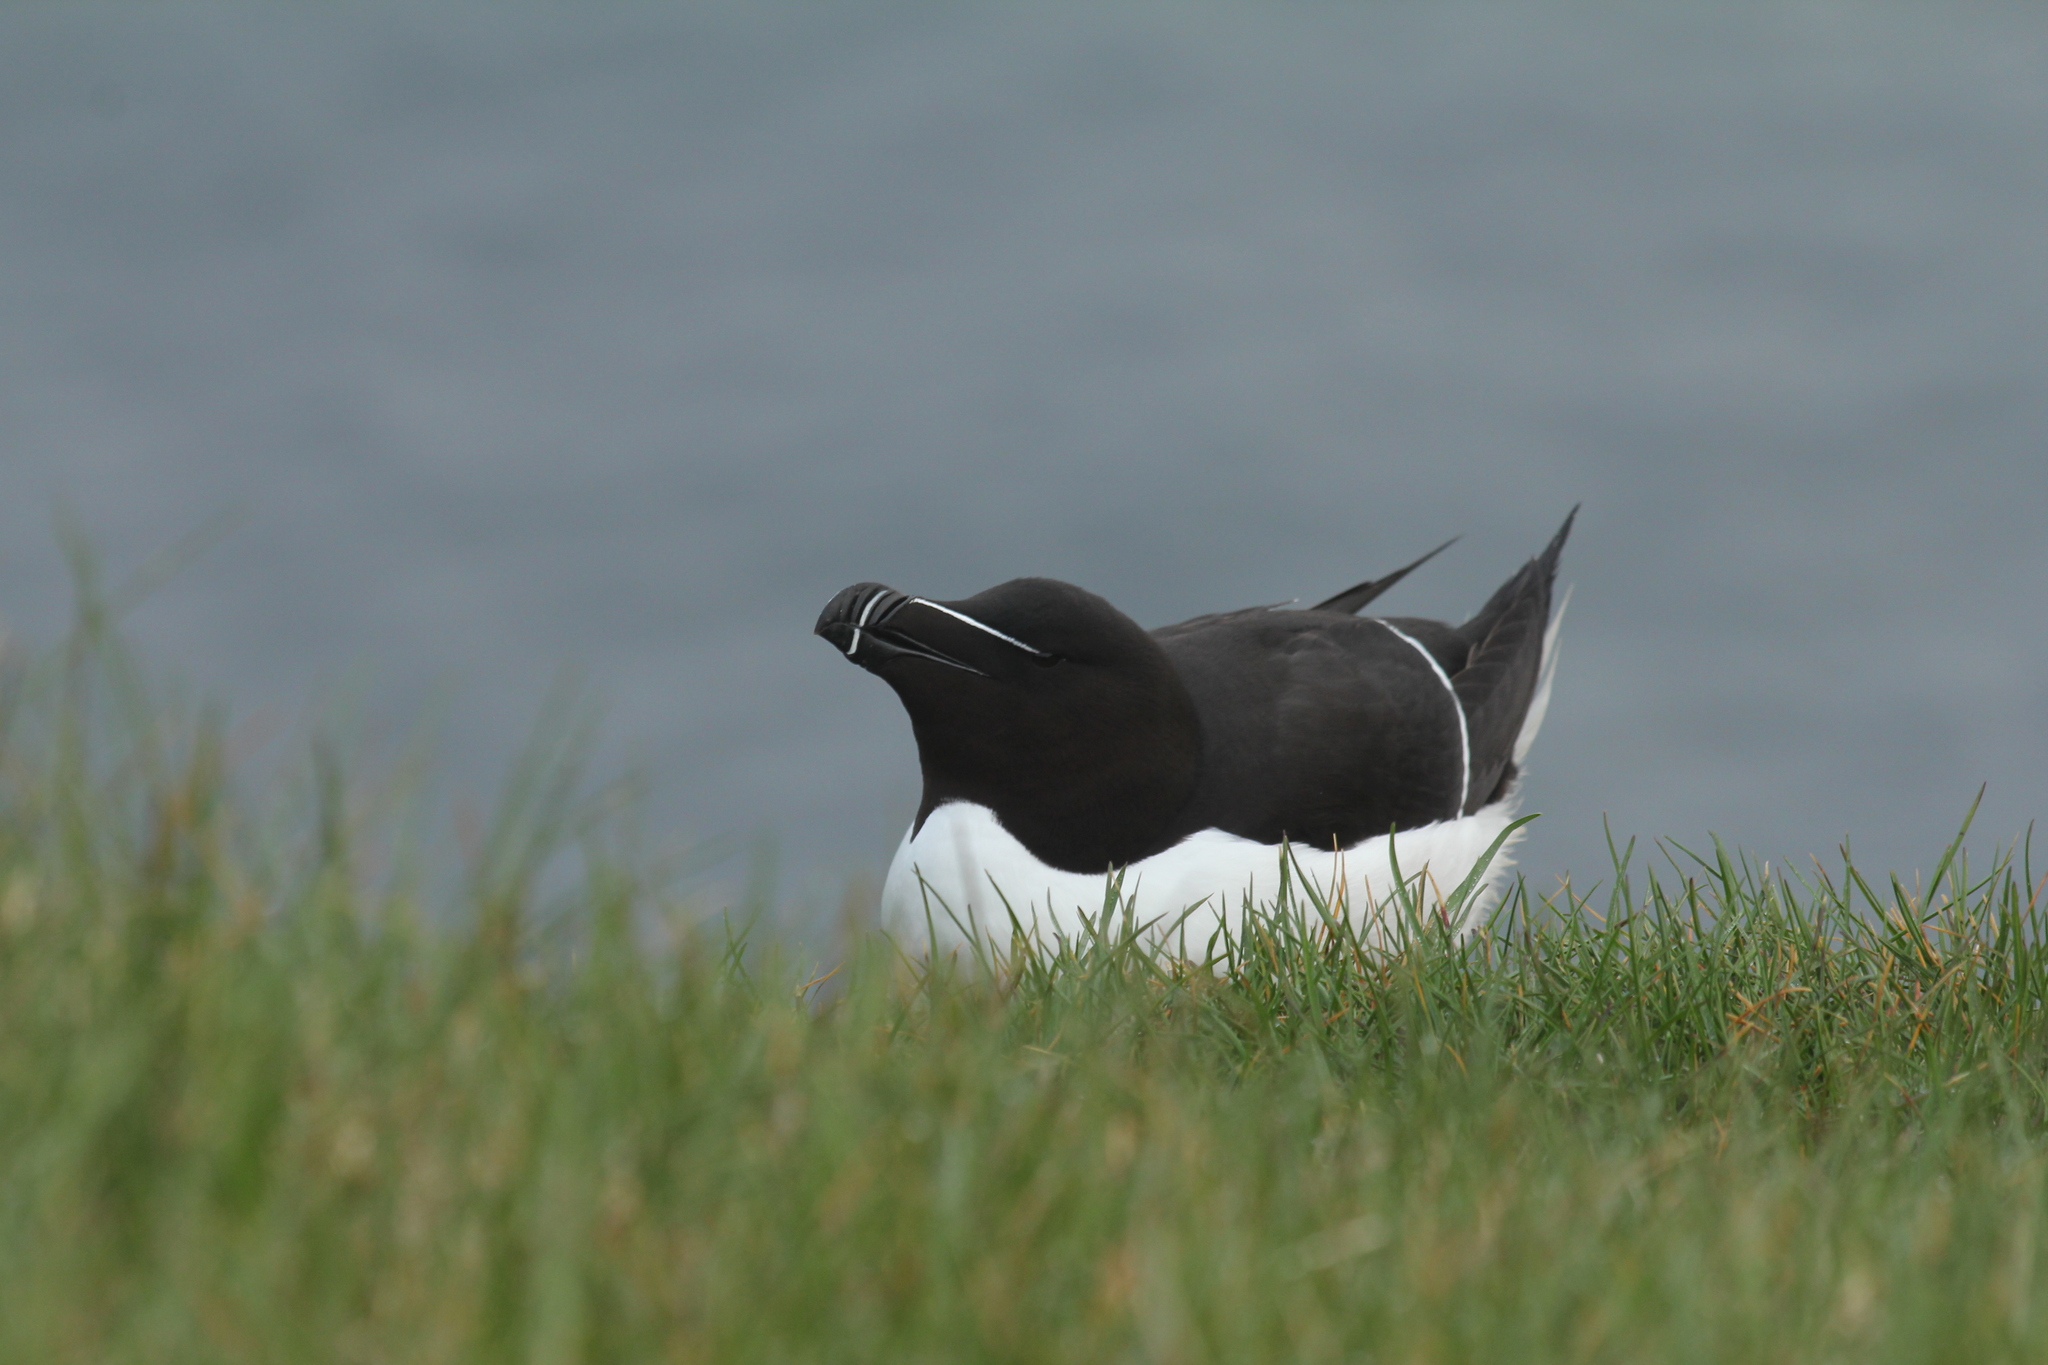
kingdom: Animalia
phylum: Chordata
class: Aves
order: Charadriiformes
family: Alcidae
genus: Alca
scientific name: Alca torda
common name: Razorbill
